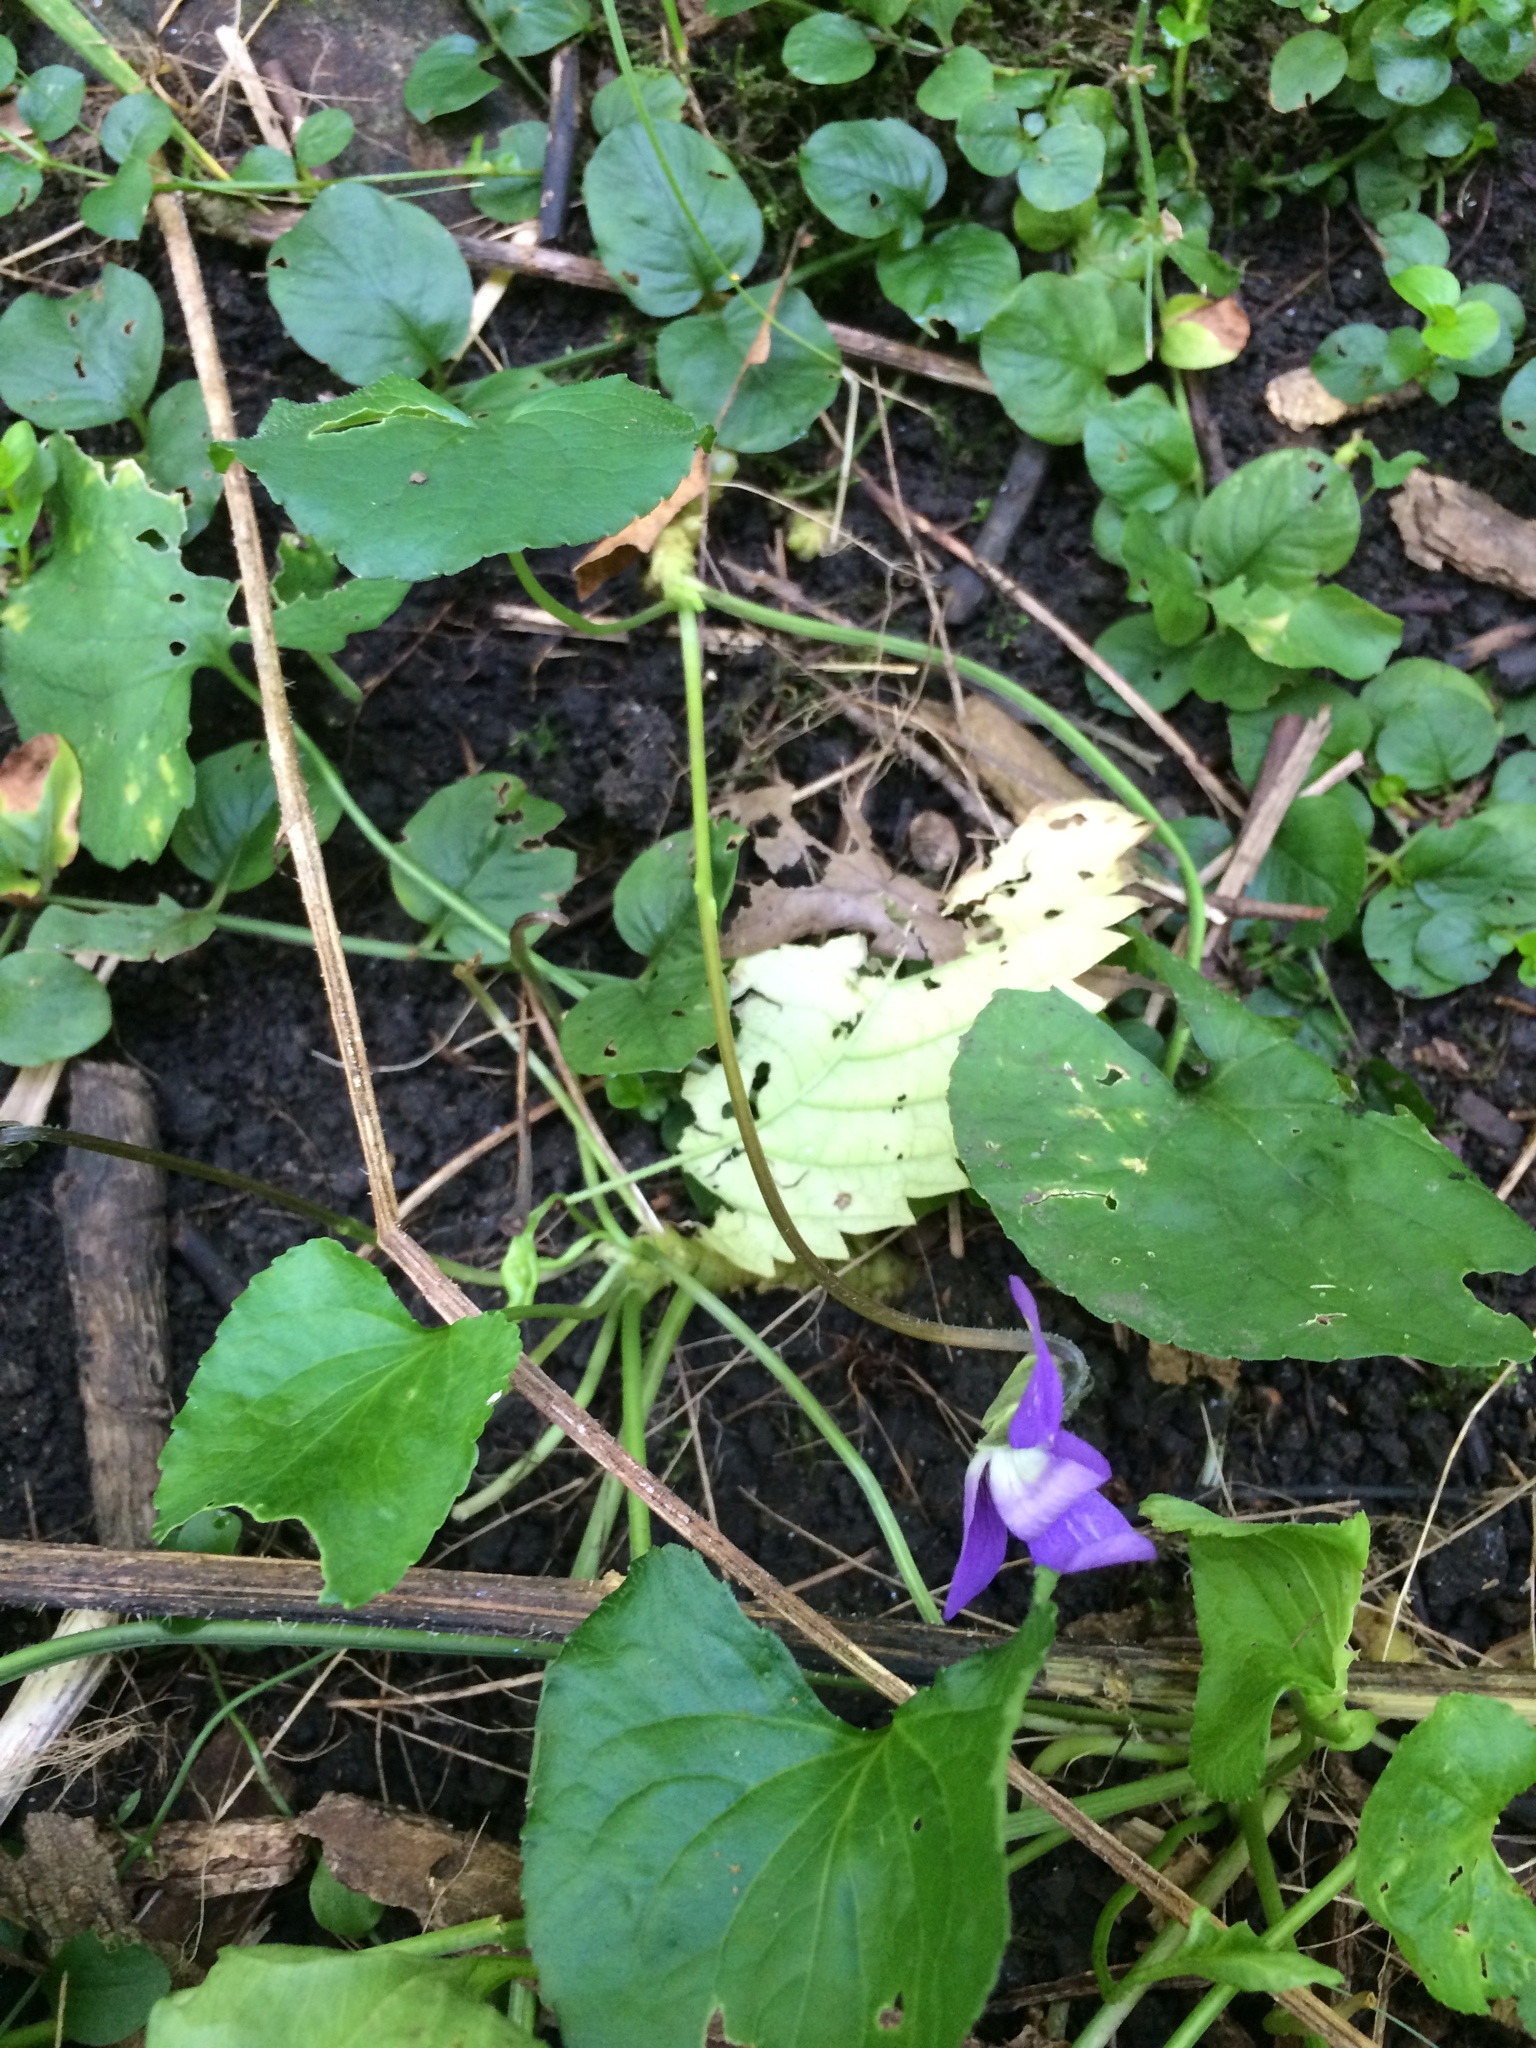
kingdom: Plantae
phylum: Tracheophyta
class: Magnoliopsida
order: Malpighiales
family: Violaceae
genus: Viola
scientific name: Viola sororia
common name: Dooryard violet
